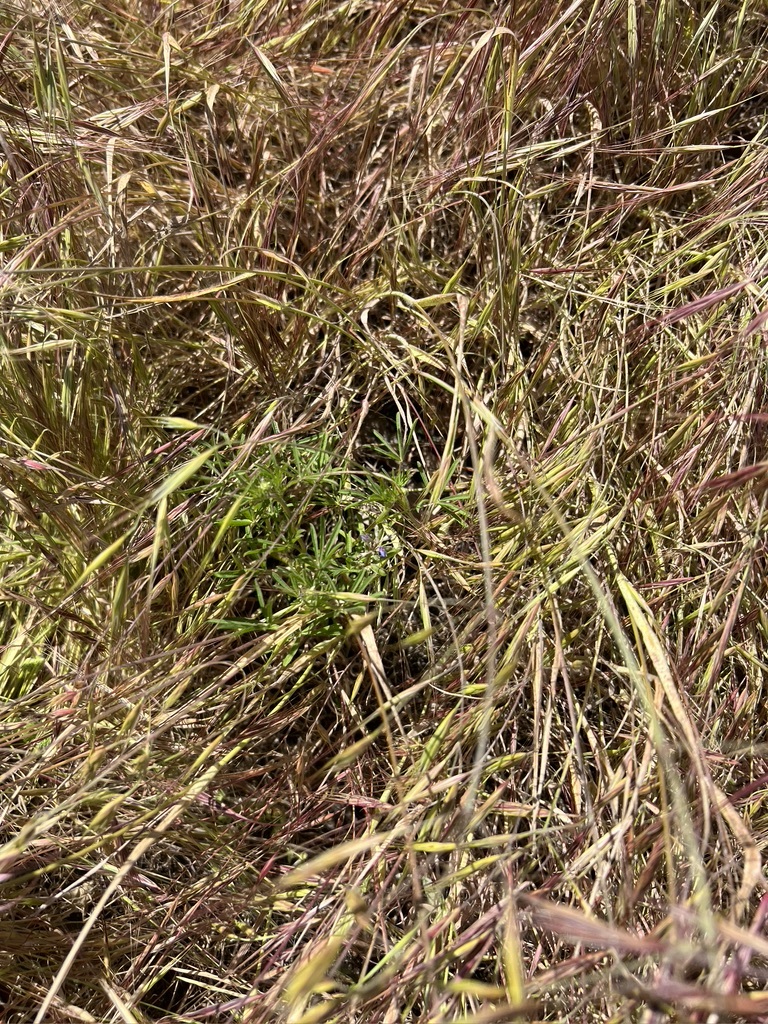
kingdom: Plantae
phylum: Tracheophyta
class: Magnoliopsida
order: Fabales
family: Fabaceae
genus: Lupinus
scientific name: Lupinus bicolor
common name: Miniature lupine
